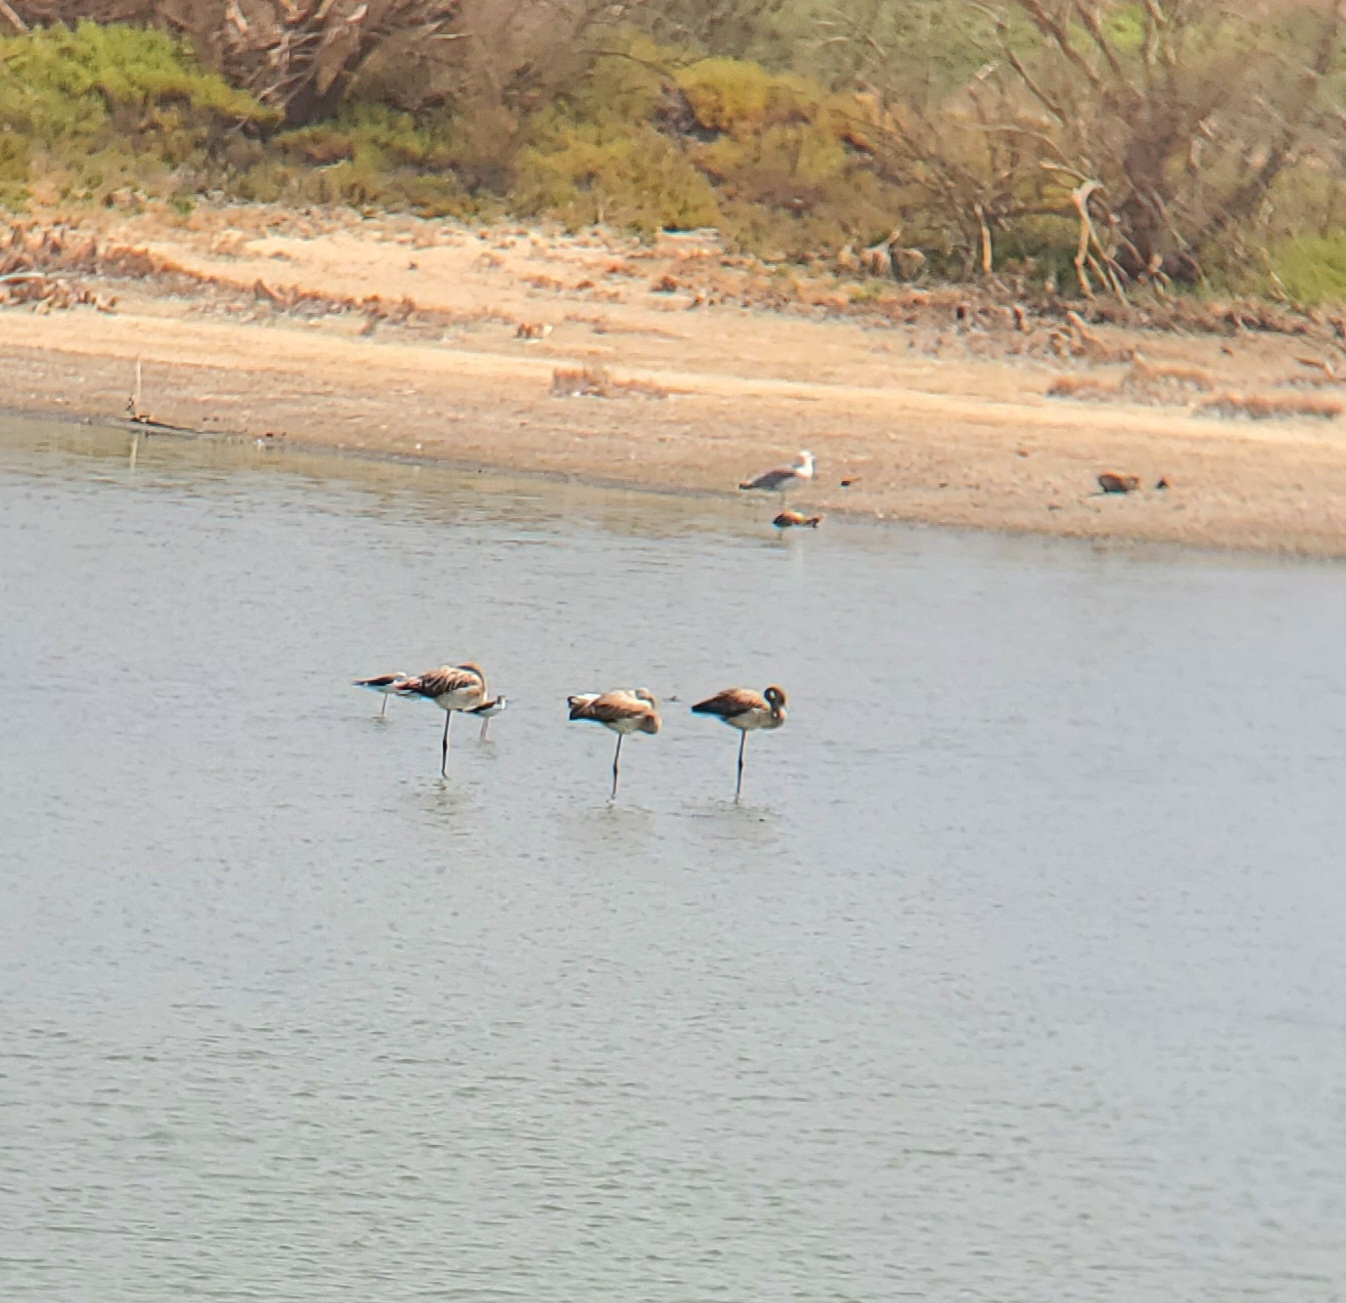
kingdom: Animalia
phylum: Chordata
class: Aves
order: Phoenicopteriformes
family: Phoenicopteridae
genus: Phoenicopterus
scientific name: Phoenicopterus roseus
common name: Greater flamingo
